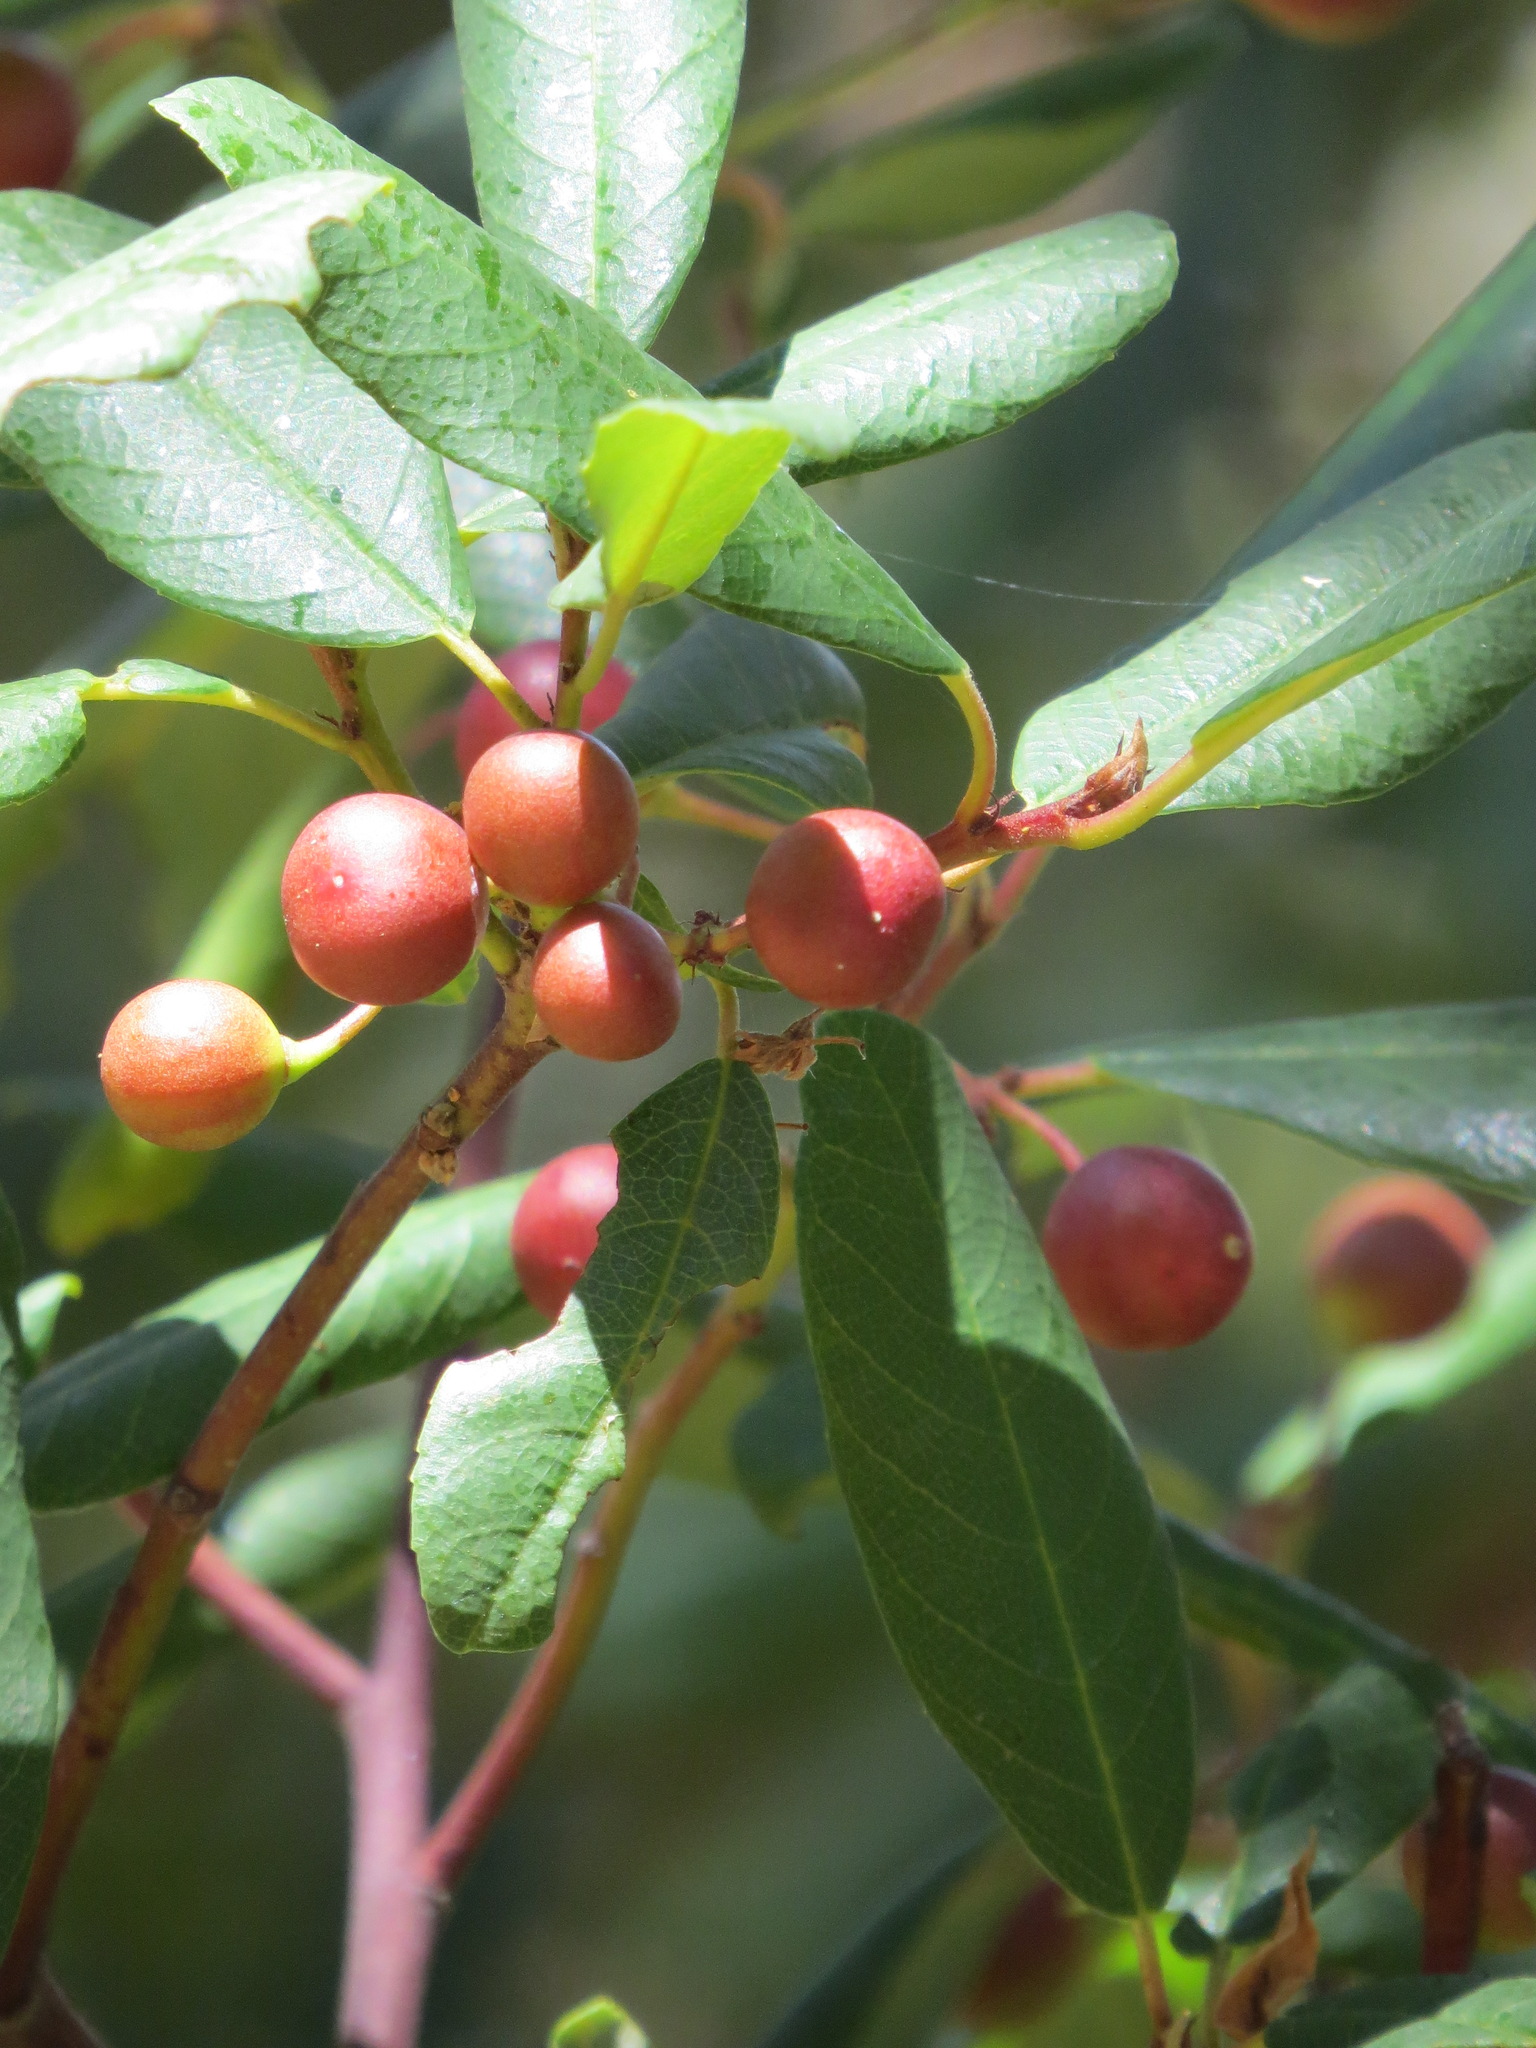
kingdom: Plantae
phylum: Tracheophyta
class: Magnoliopsida
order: Rosales
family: Rhamnaceae
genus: Frangula
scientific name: Frangula californica
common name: California buckthorn
